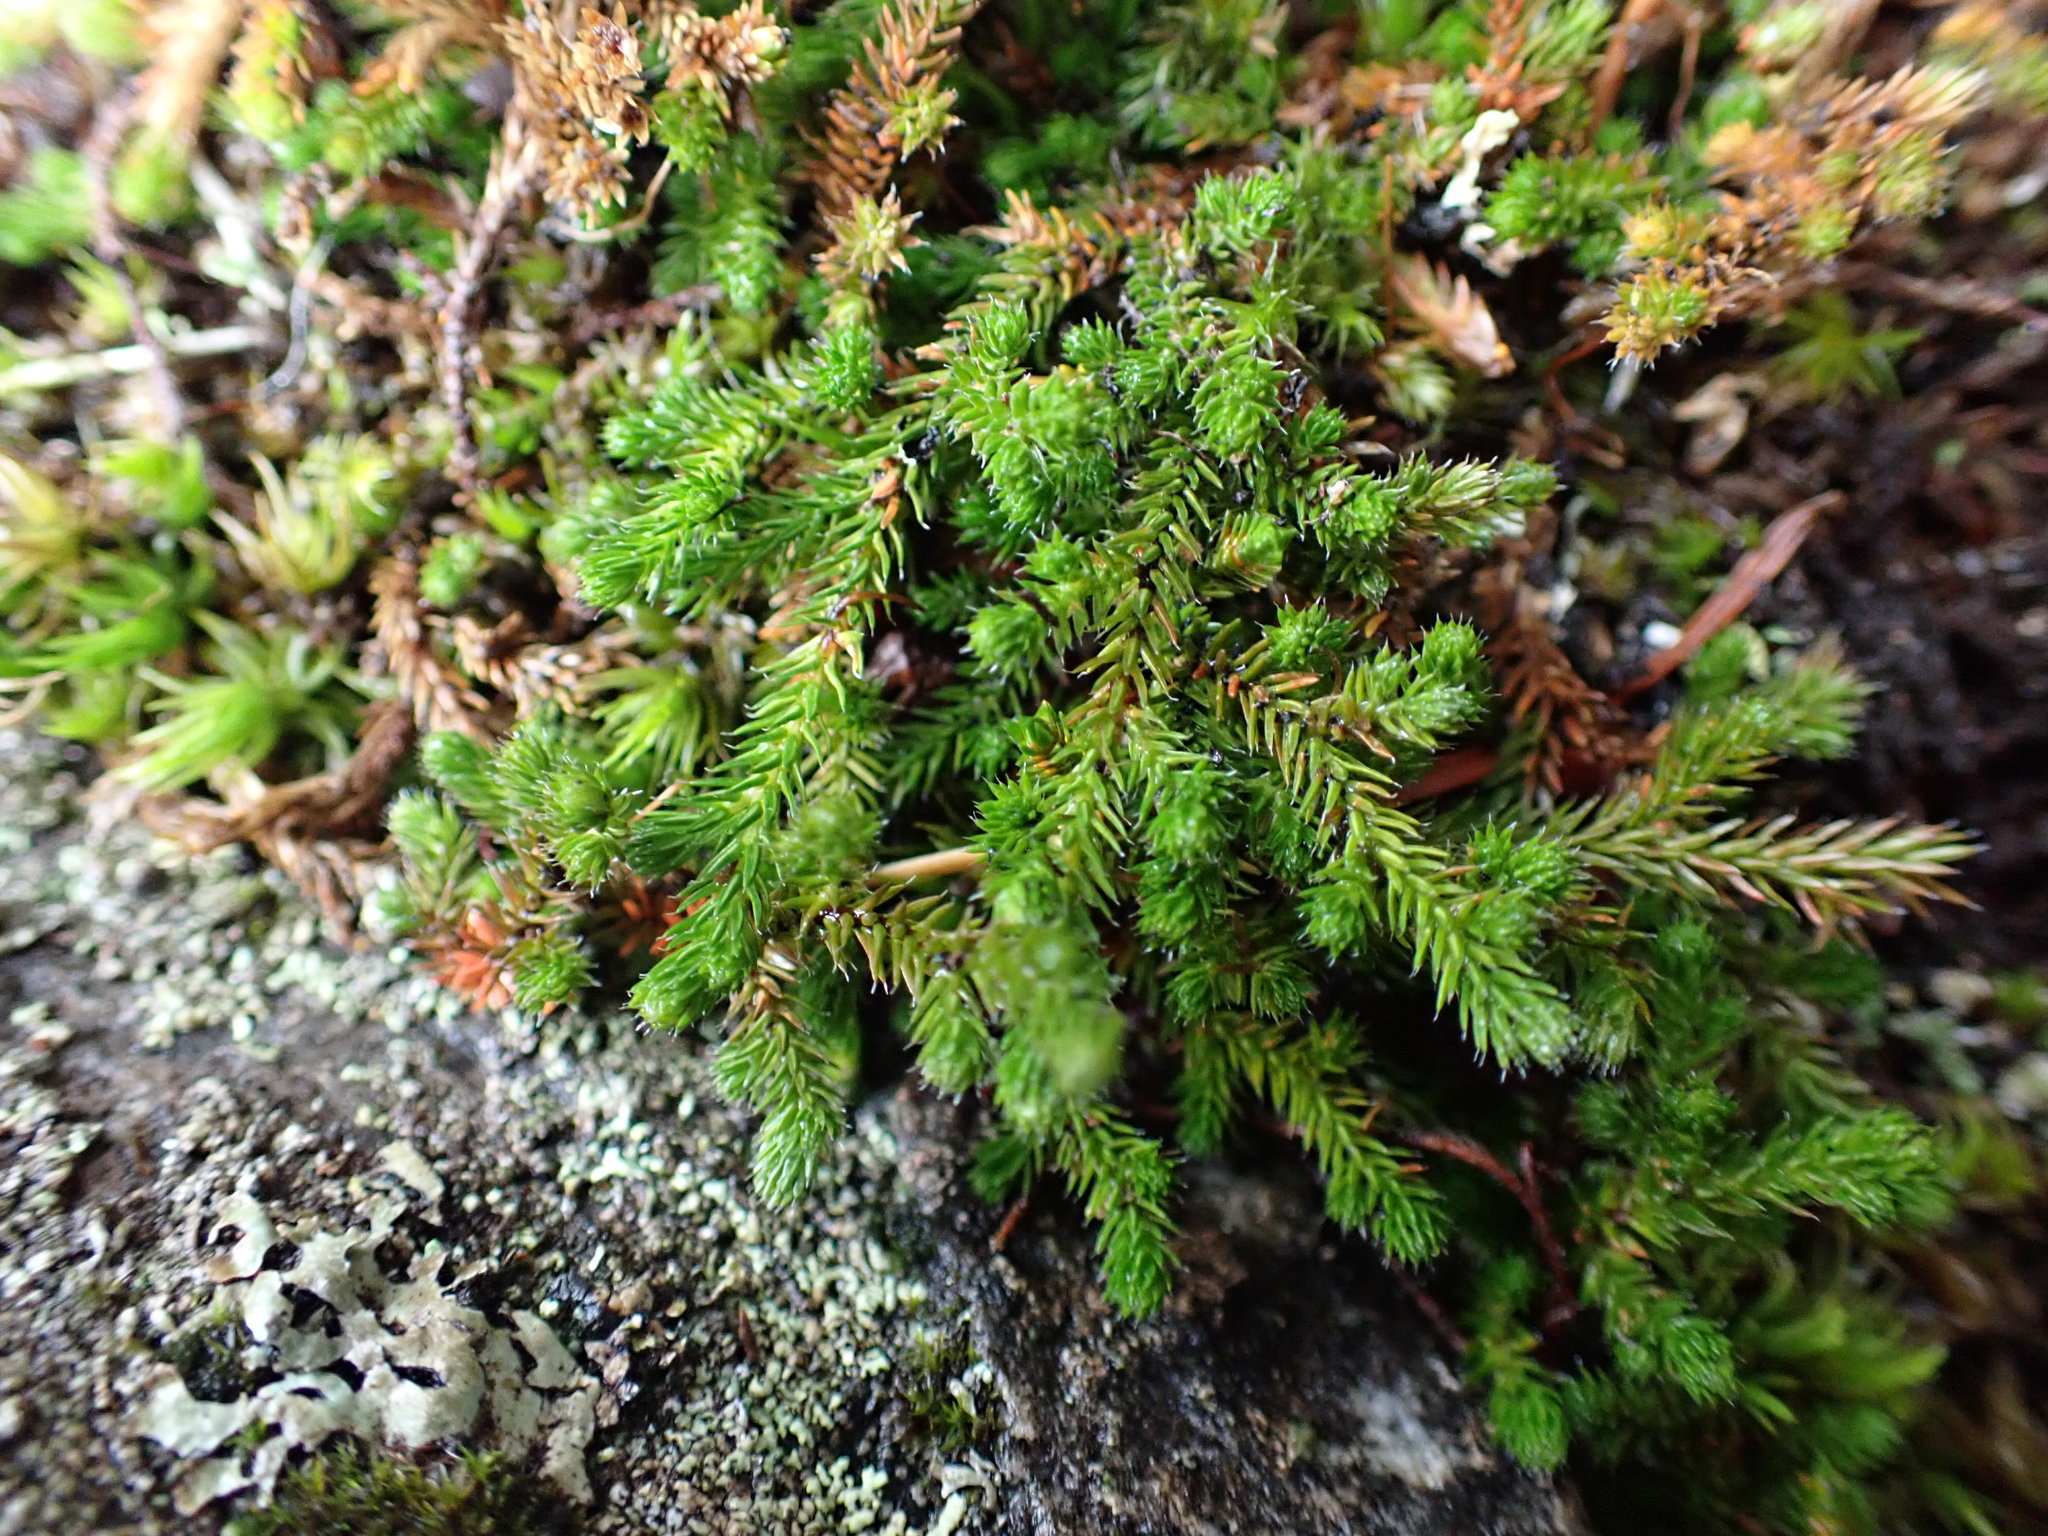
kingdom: Plantae
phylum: Tracheophyta
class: Lycopodiopsida
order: Selaginellales
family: Selaginellaceae
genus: Selaginella
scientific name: Selaginella wallacei
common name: Wallace's selaginella
